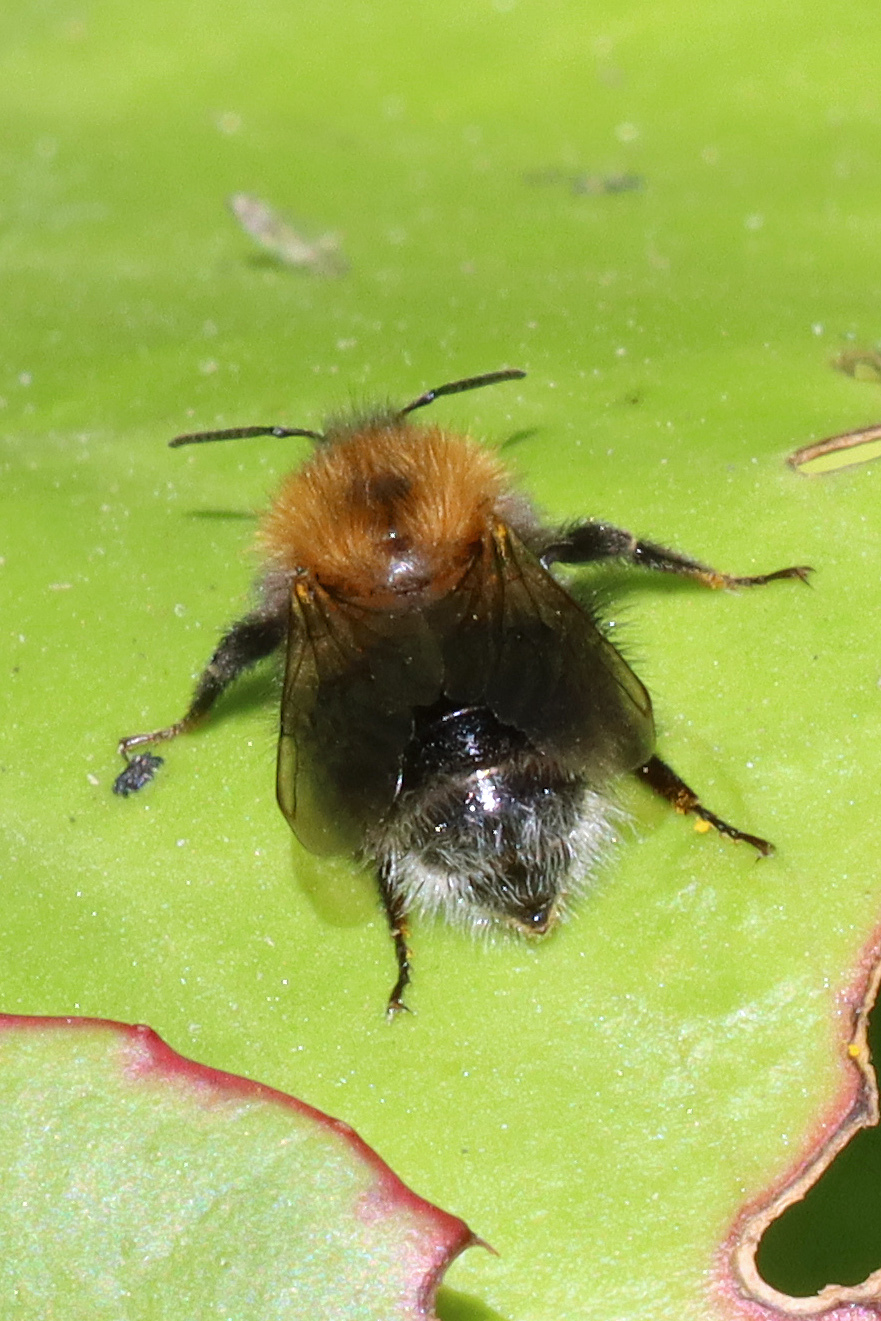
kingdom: Animalia
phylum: Arthropoda
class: Insecta
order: Hymenoptera
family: Apidae
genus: Bombus
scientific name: Bombus hypnorum
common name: New garden bumblebee
